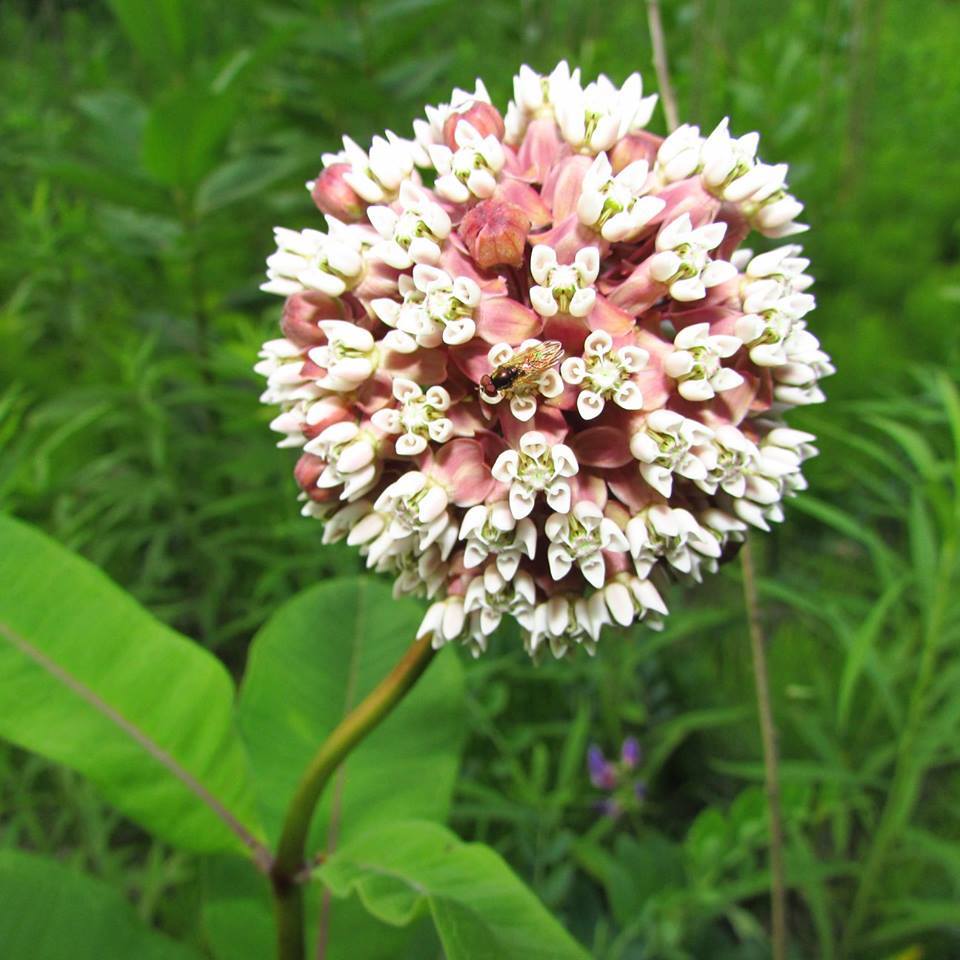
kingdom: Plantae
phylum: Tracheophyta
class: Magnoliopsida
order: Gentianales
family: Apocynaceae
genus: Asclepias
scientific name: Asclepias syriaca
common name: Common milkweed
